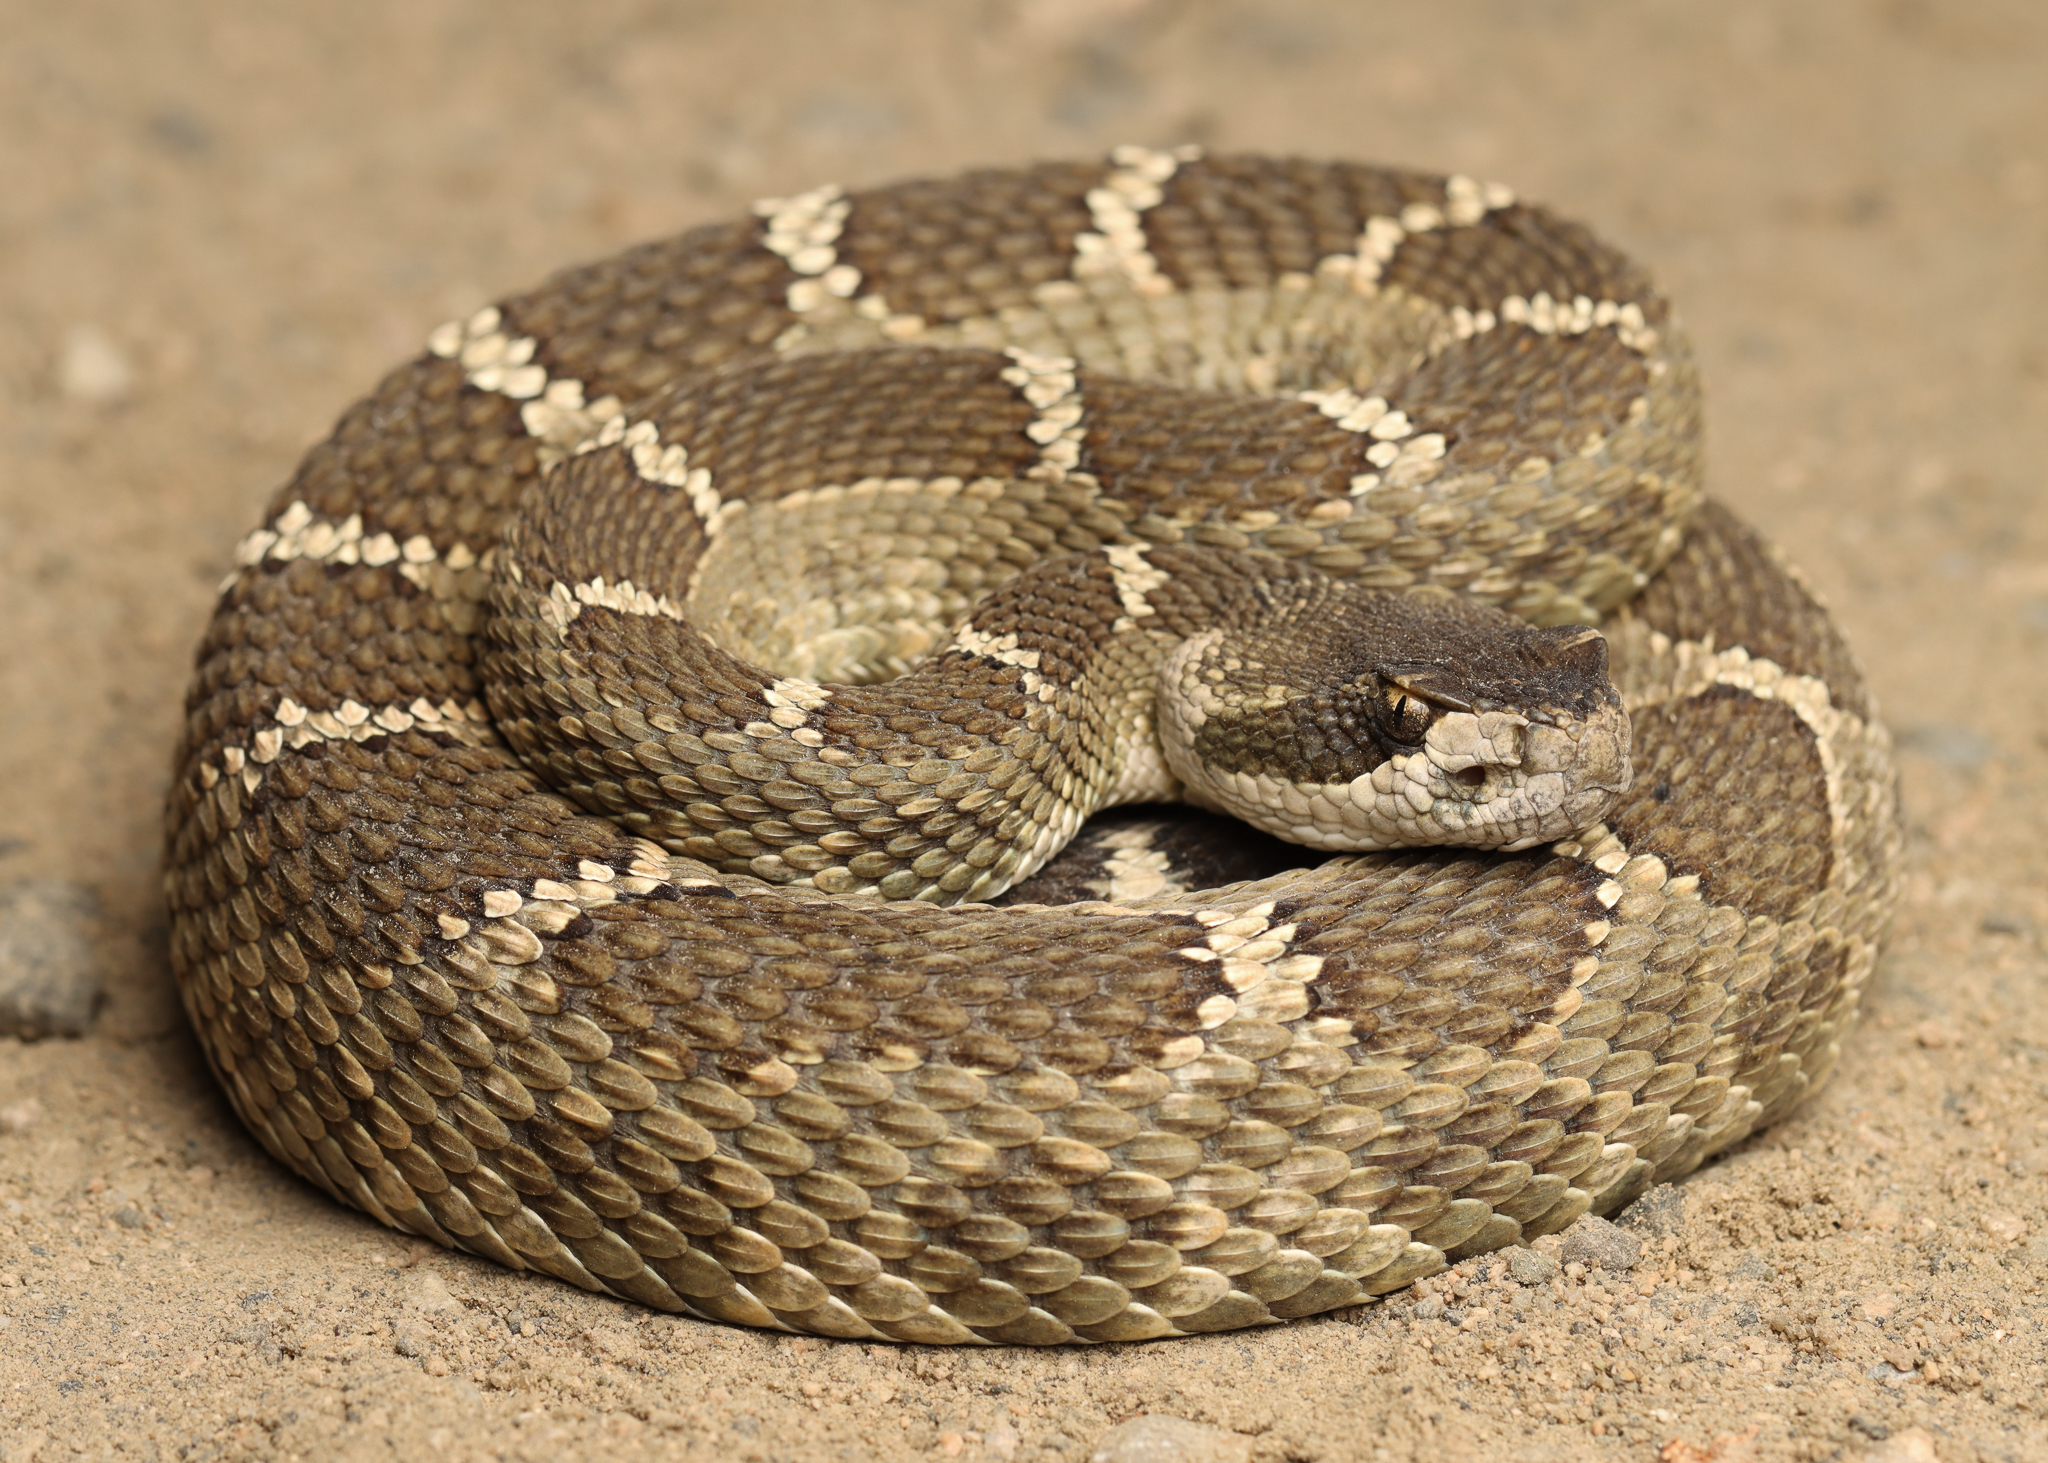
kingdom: Animalia
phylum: Chordata
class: Squamata
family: Viperidae
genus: Crotalus
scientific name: Crotalus oreganus
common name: Abyssus
